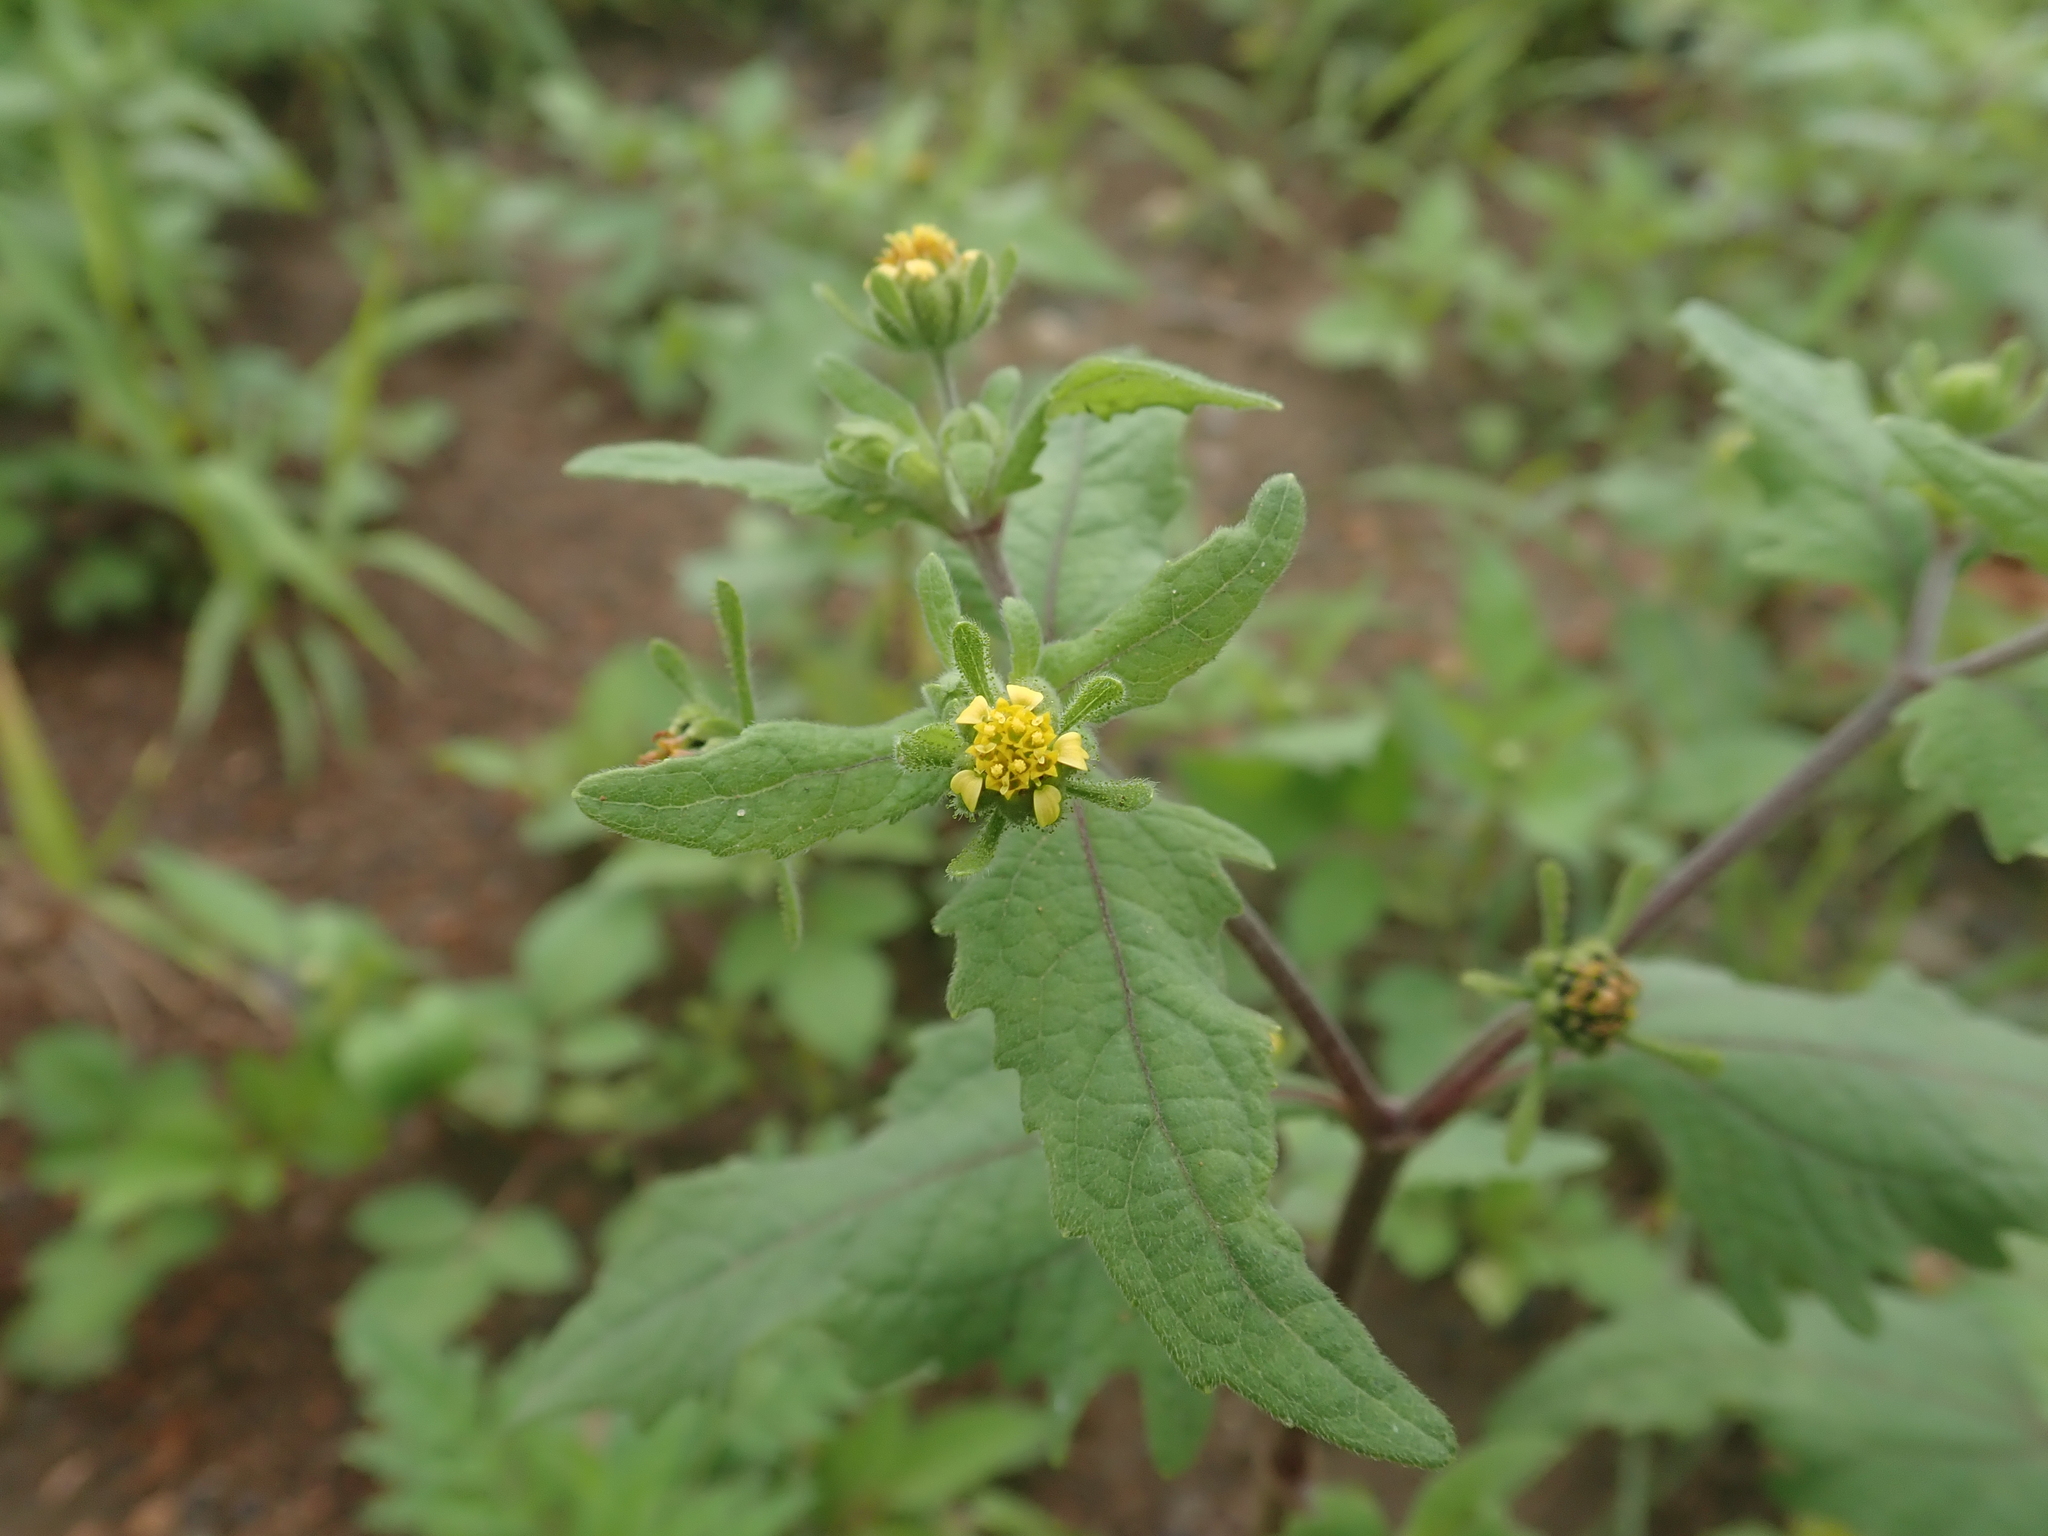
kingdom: Plantae
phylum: Tracheophyta
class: Magnoliopsida
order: Asterales
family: Asteraceae
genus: Sigesbeckia
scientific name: Sigesbeckia orientalis
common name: Eastern st paul's-wort
